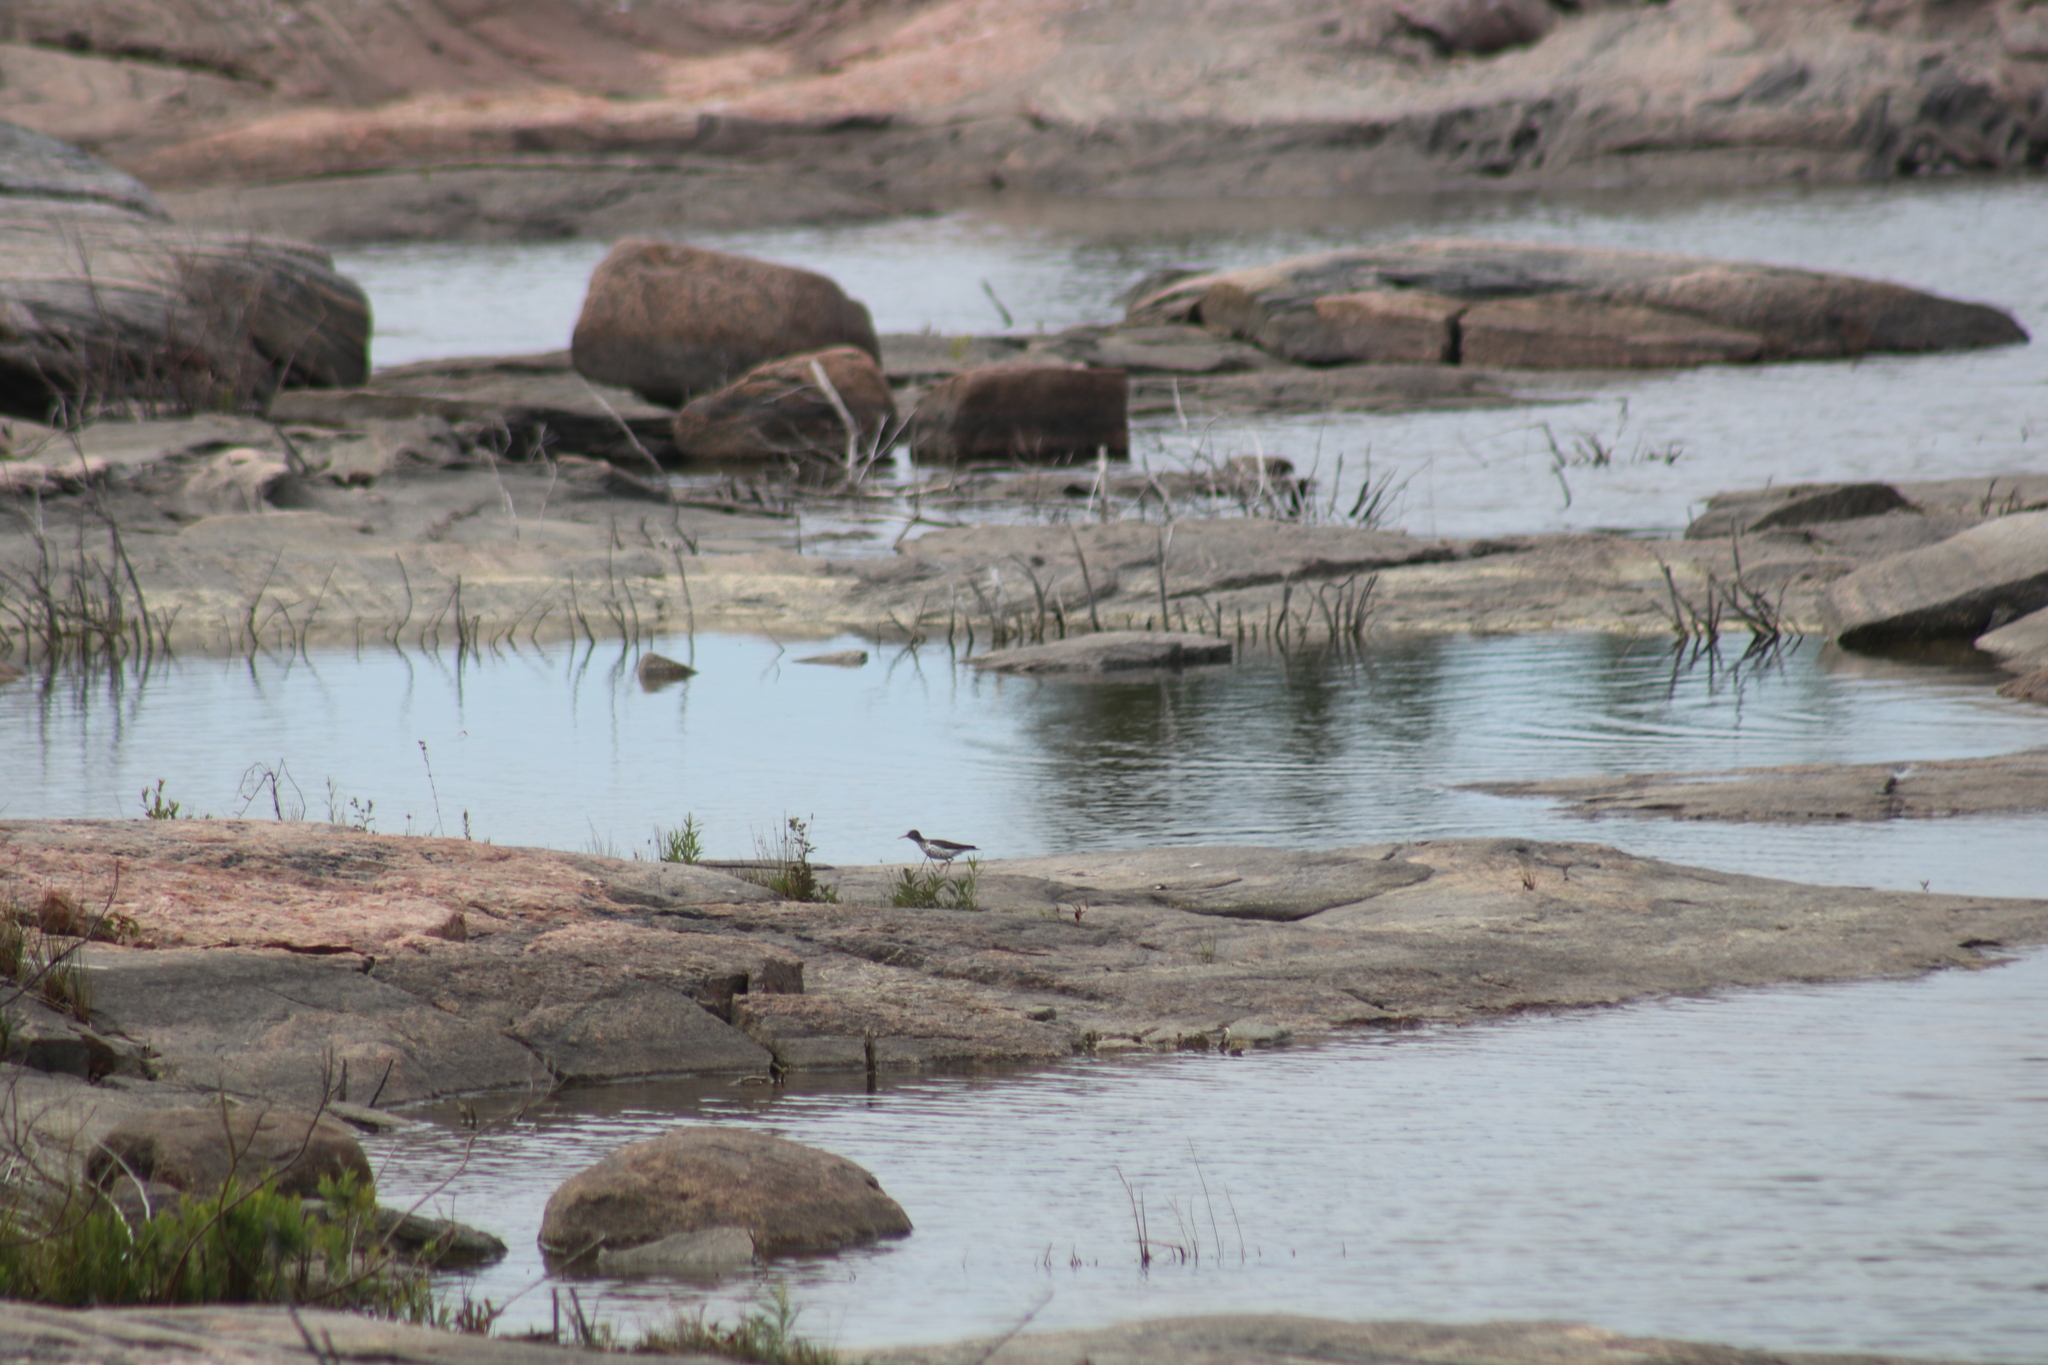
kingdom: Animalia
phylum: Chordata
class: Aves
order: Charadriiformes
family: Scolopacidae
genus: Actitis
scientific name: Actitis macularius
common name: Spotted sandpiper
